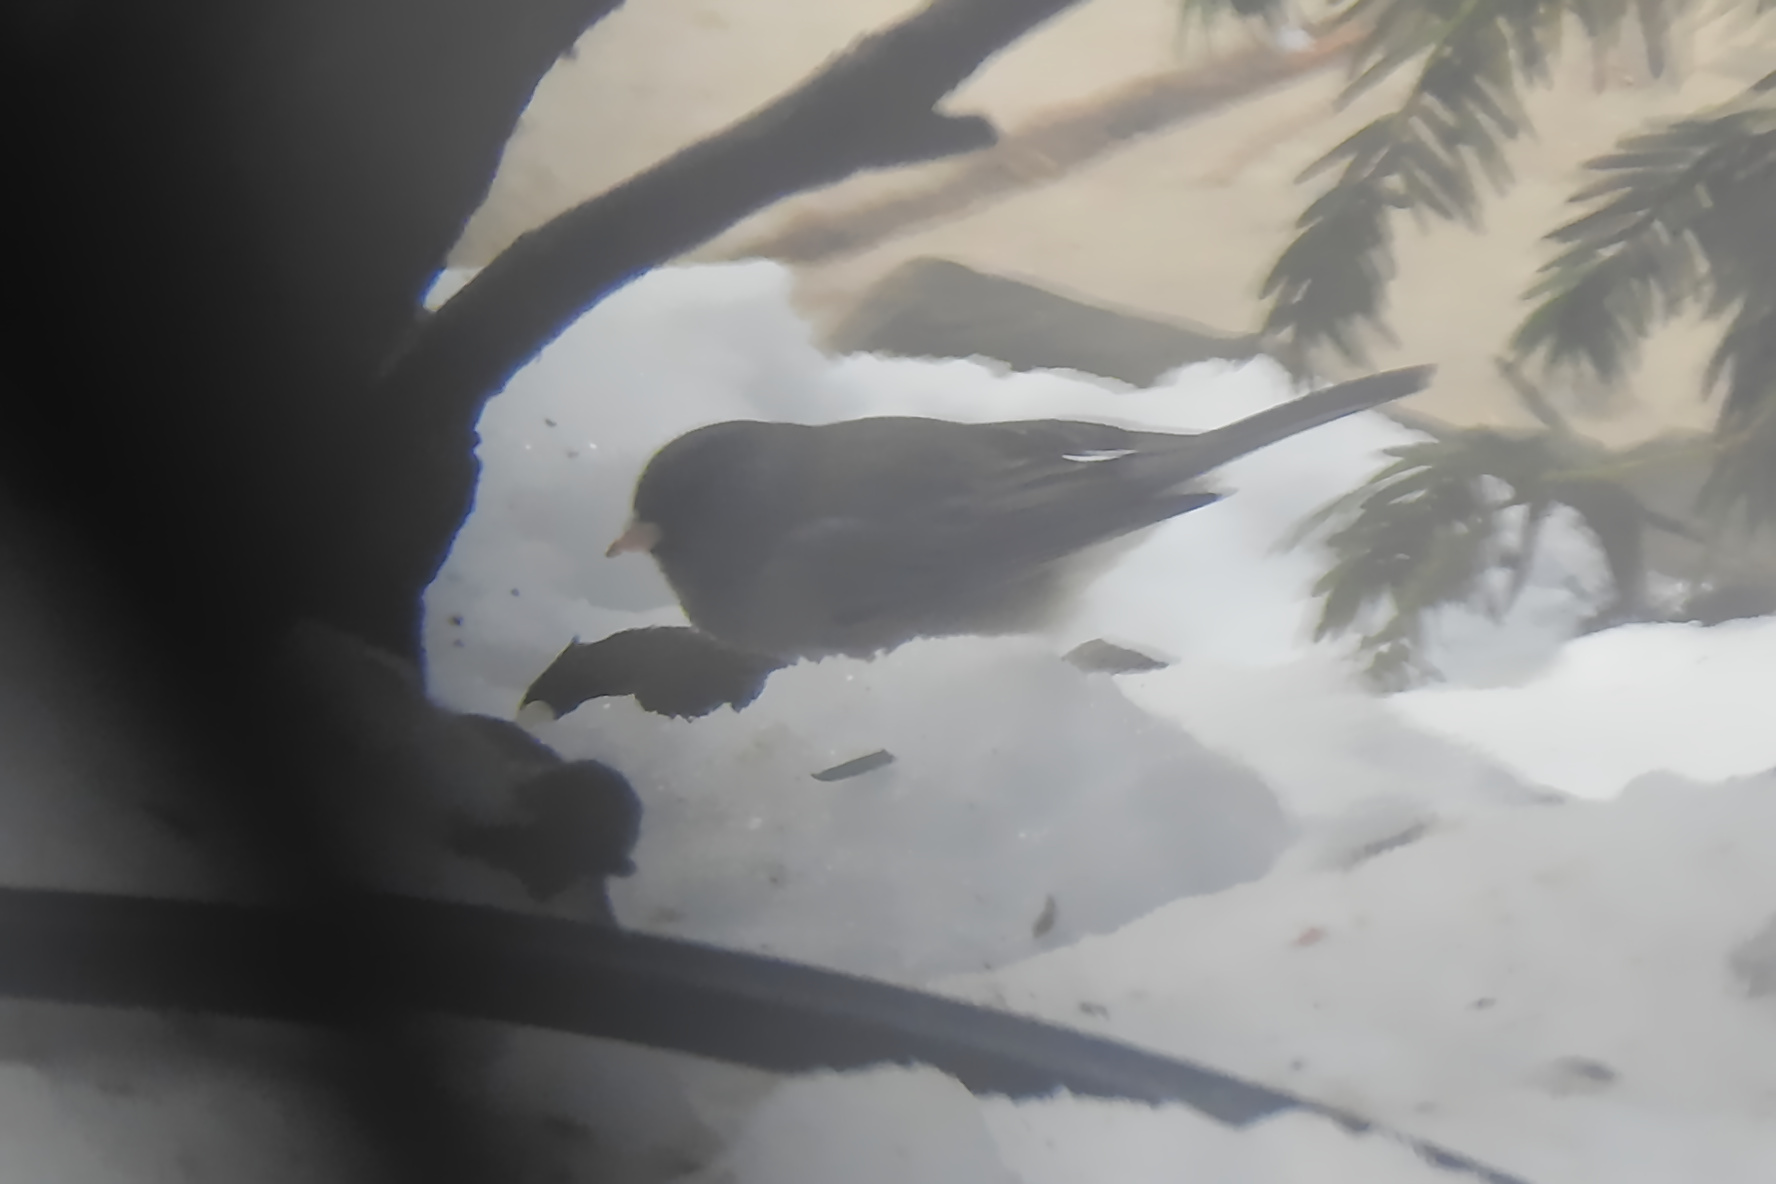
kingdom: Animalia
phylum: Chordata
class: Aves
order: Passeriformes
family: Passerellidae
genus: Junco
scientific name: Junco hyemalis
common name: Dark-eyed junco
